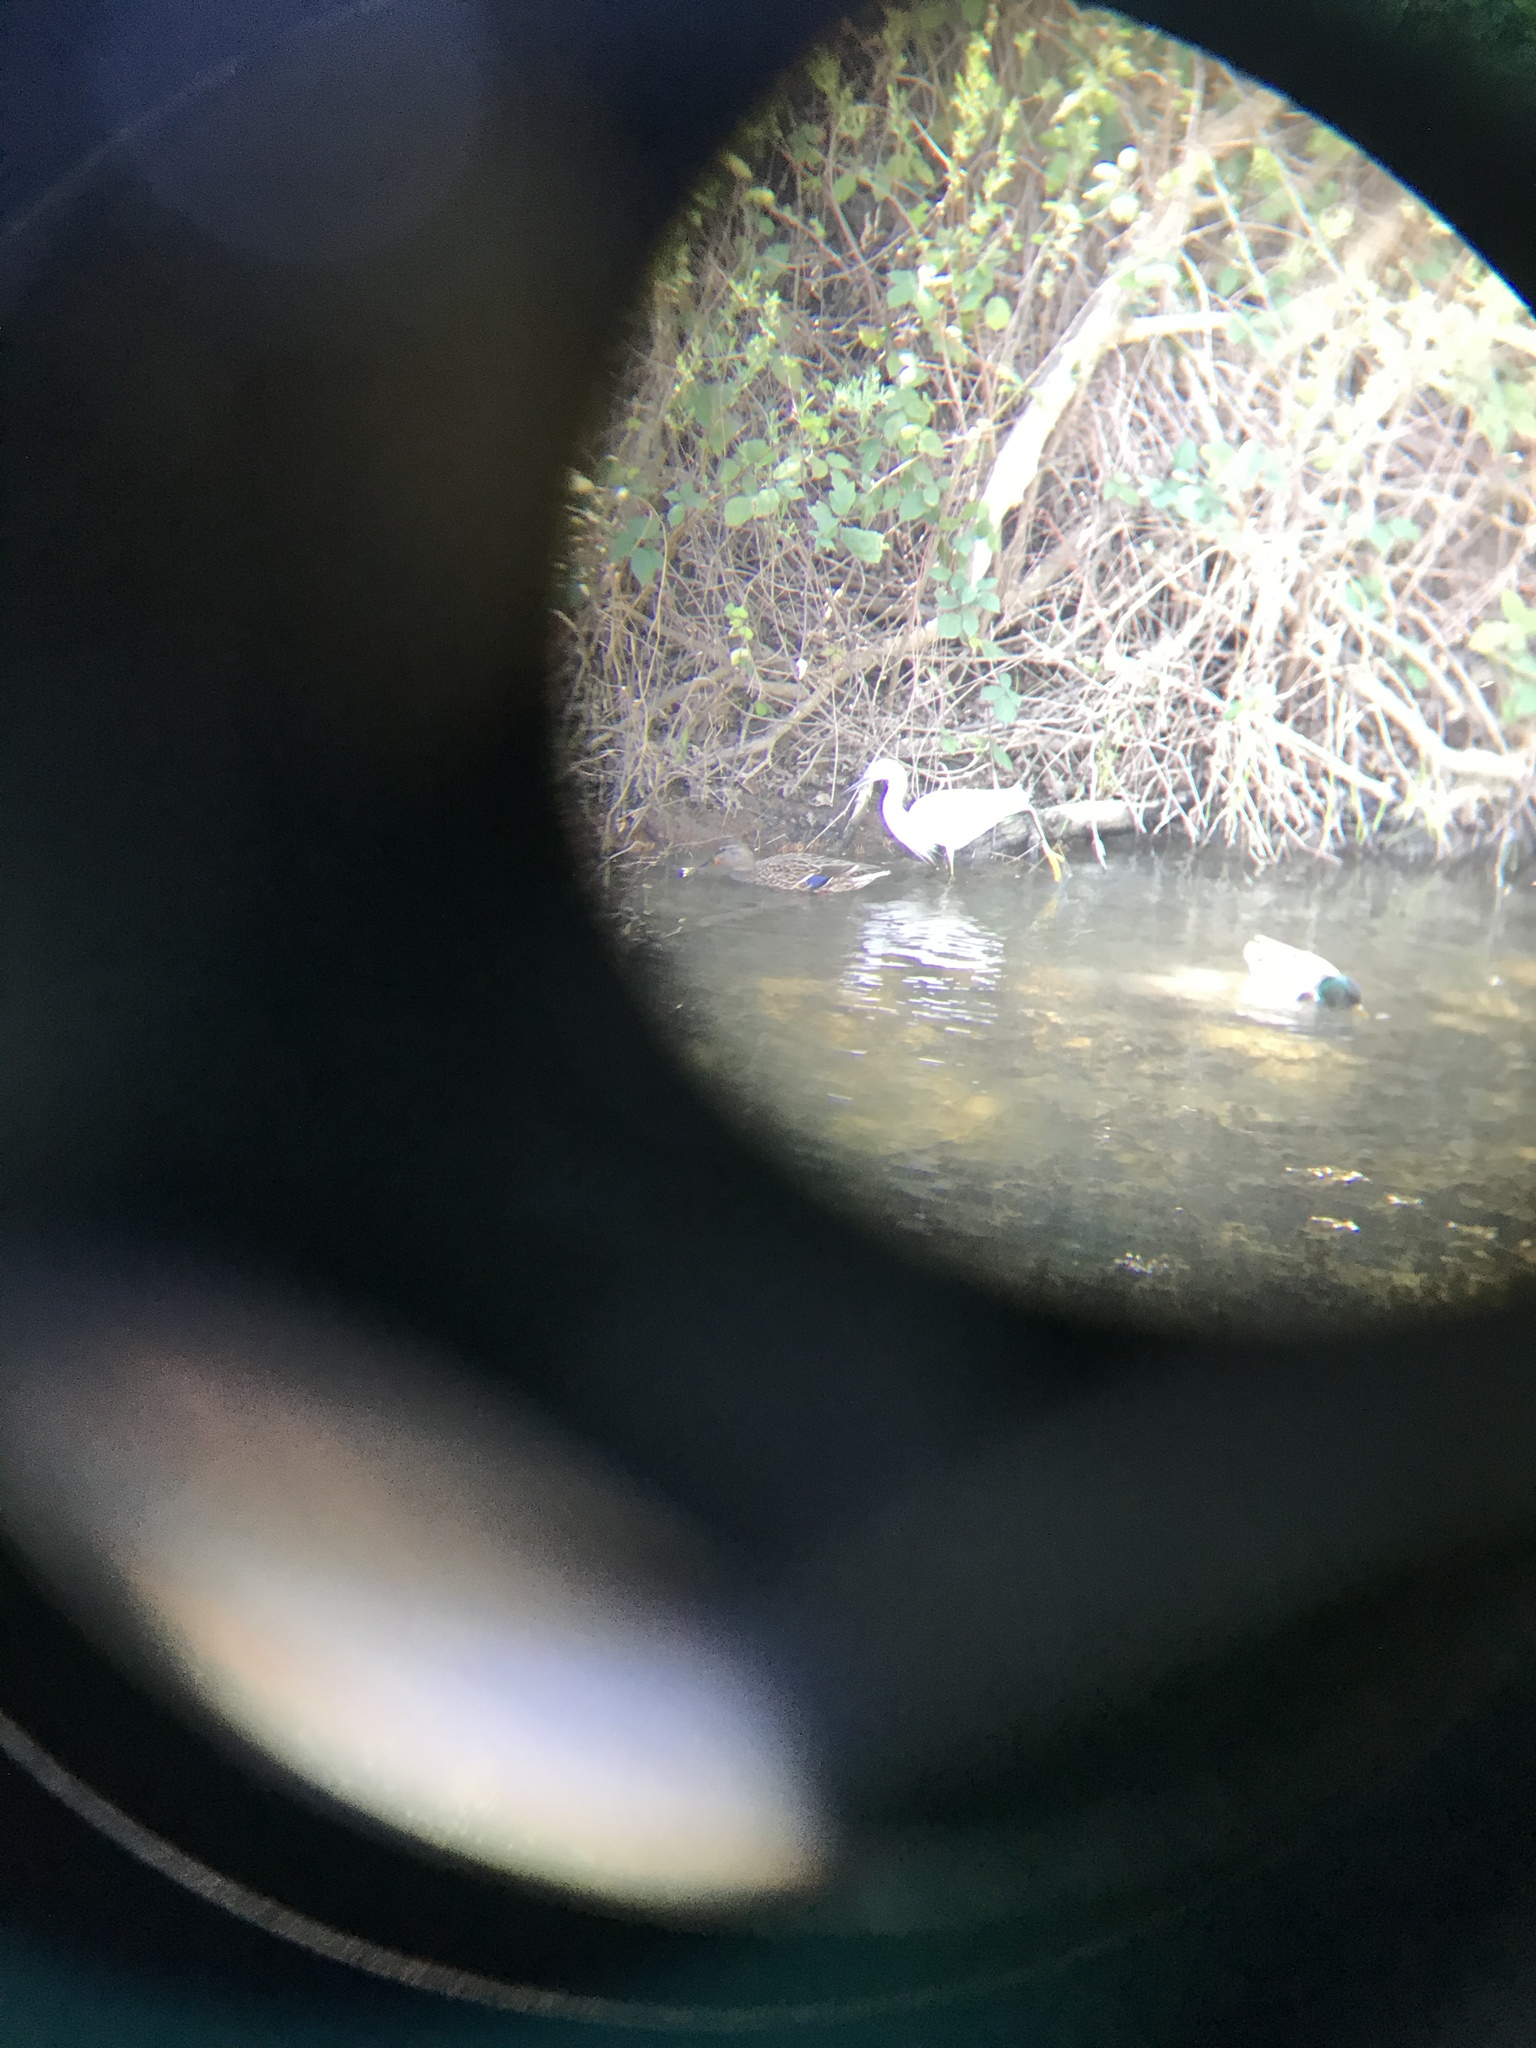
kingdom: Animalia
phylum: Chordata
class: Aves
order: Pelecaniformes
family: Ardeidae
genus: Egretta
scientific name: Egretta thula
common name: Snowy egret
